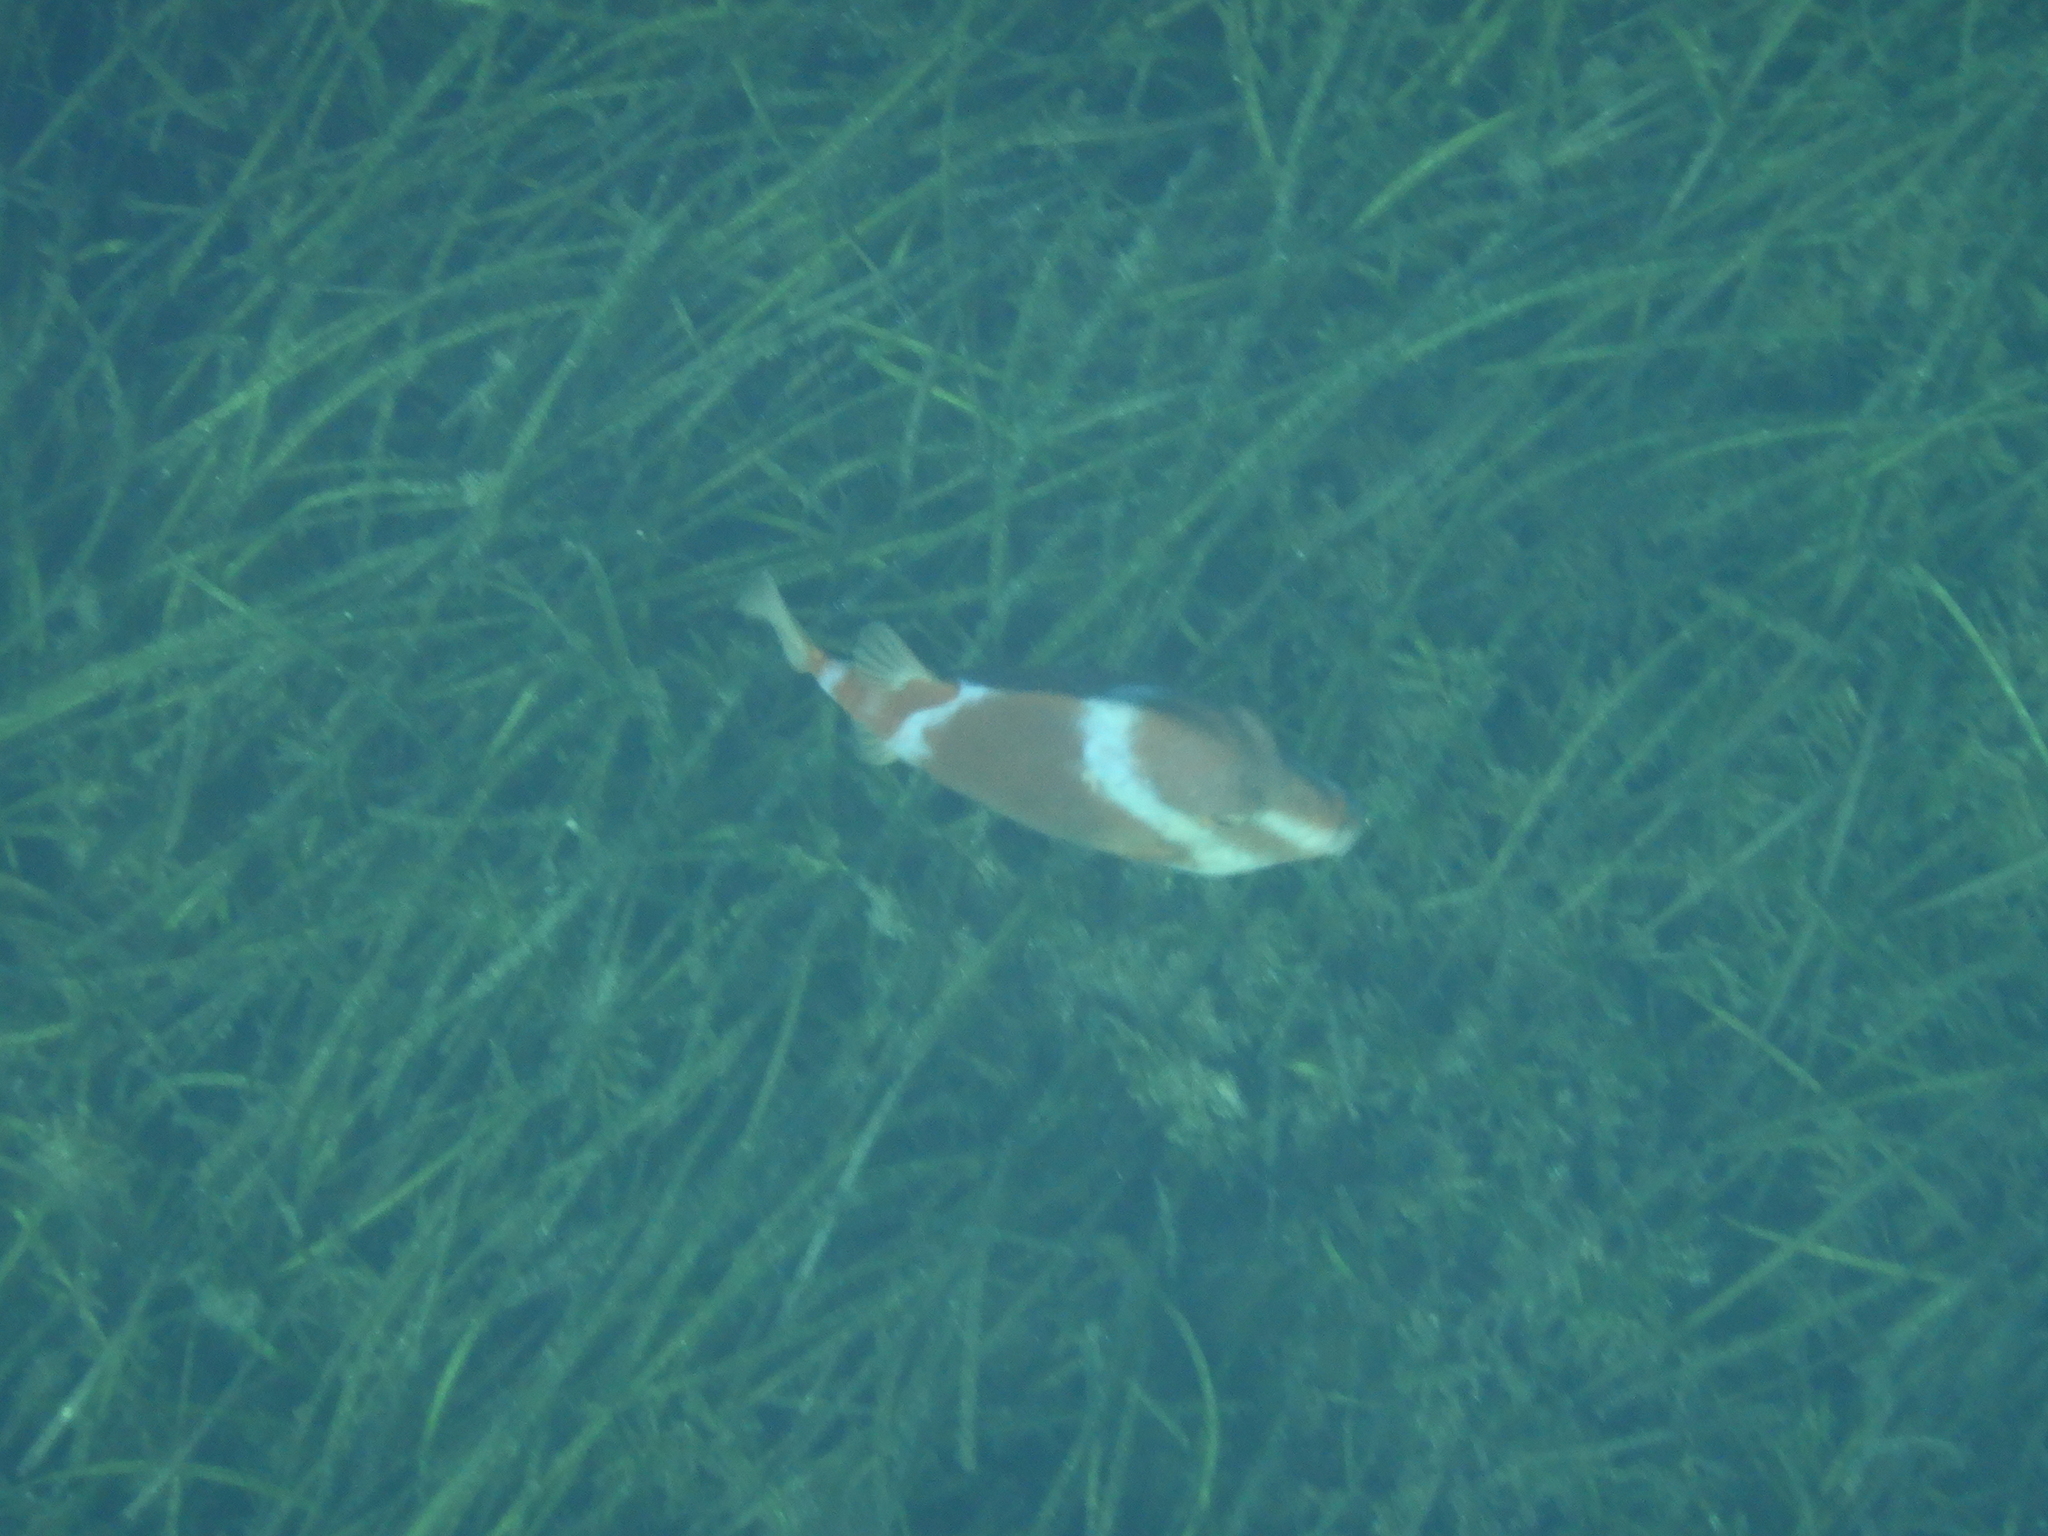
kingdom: Animalia
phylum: Chordata
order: Tetraodontiformes
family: Aracanidae
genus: Anoplocapros
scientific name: Anoplocapros lenticularis
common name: White-barred boxfish
